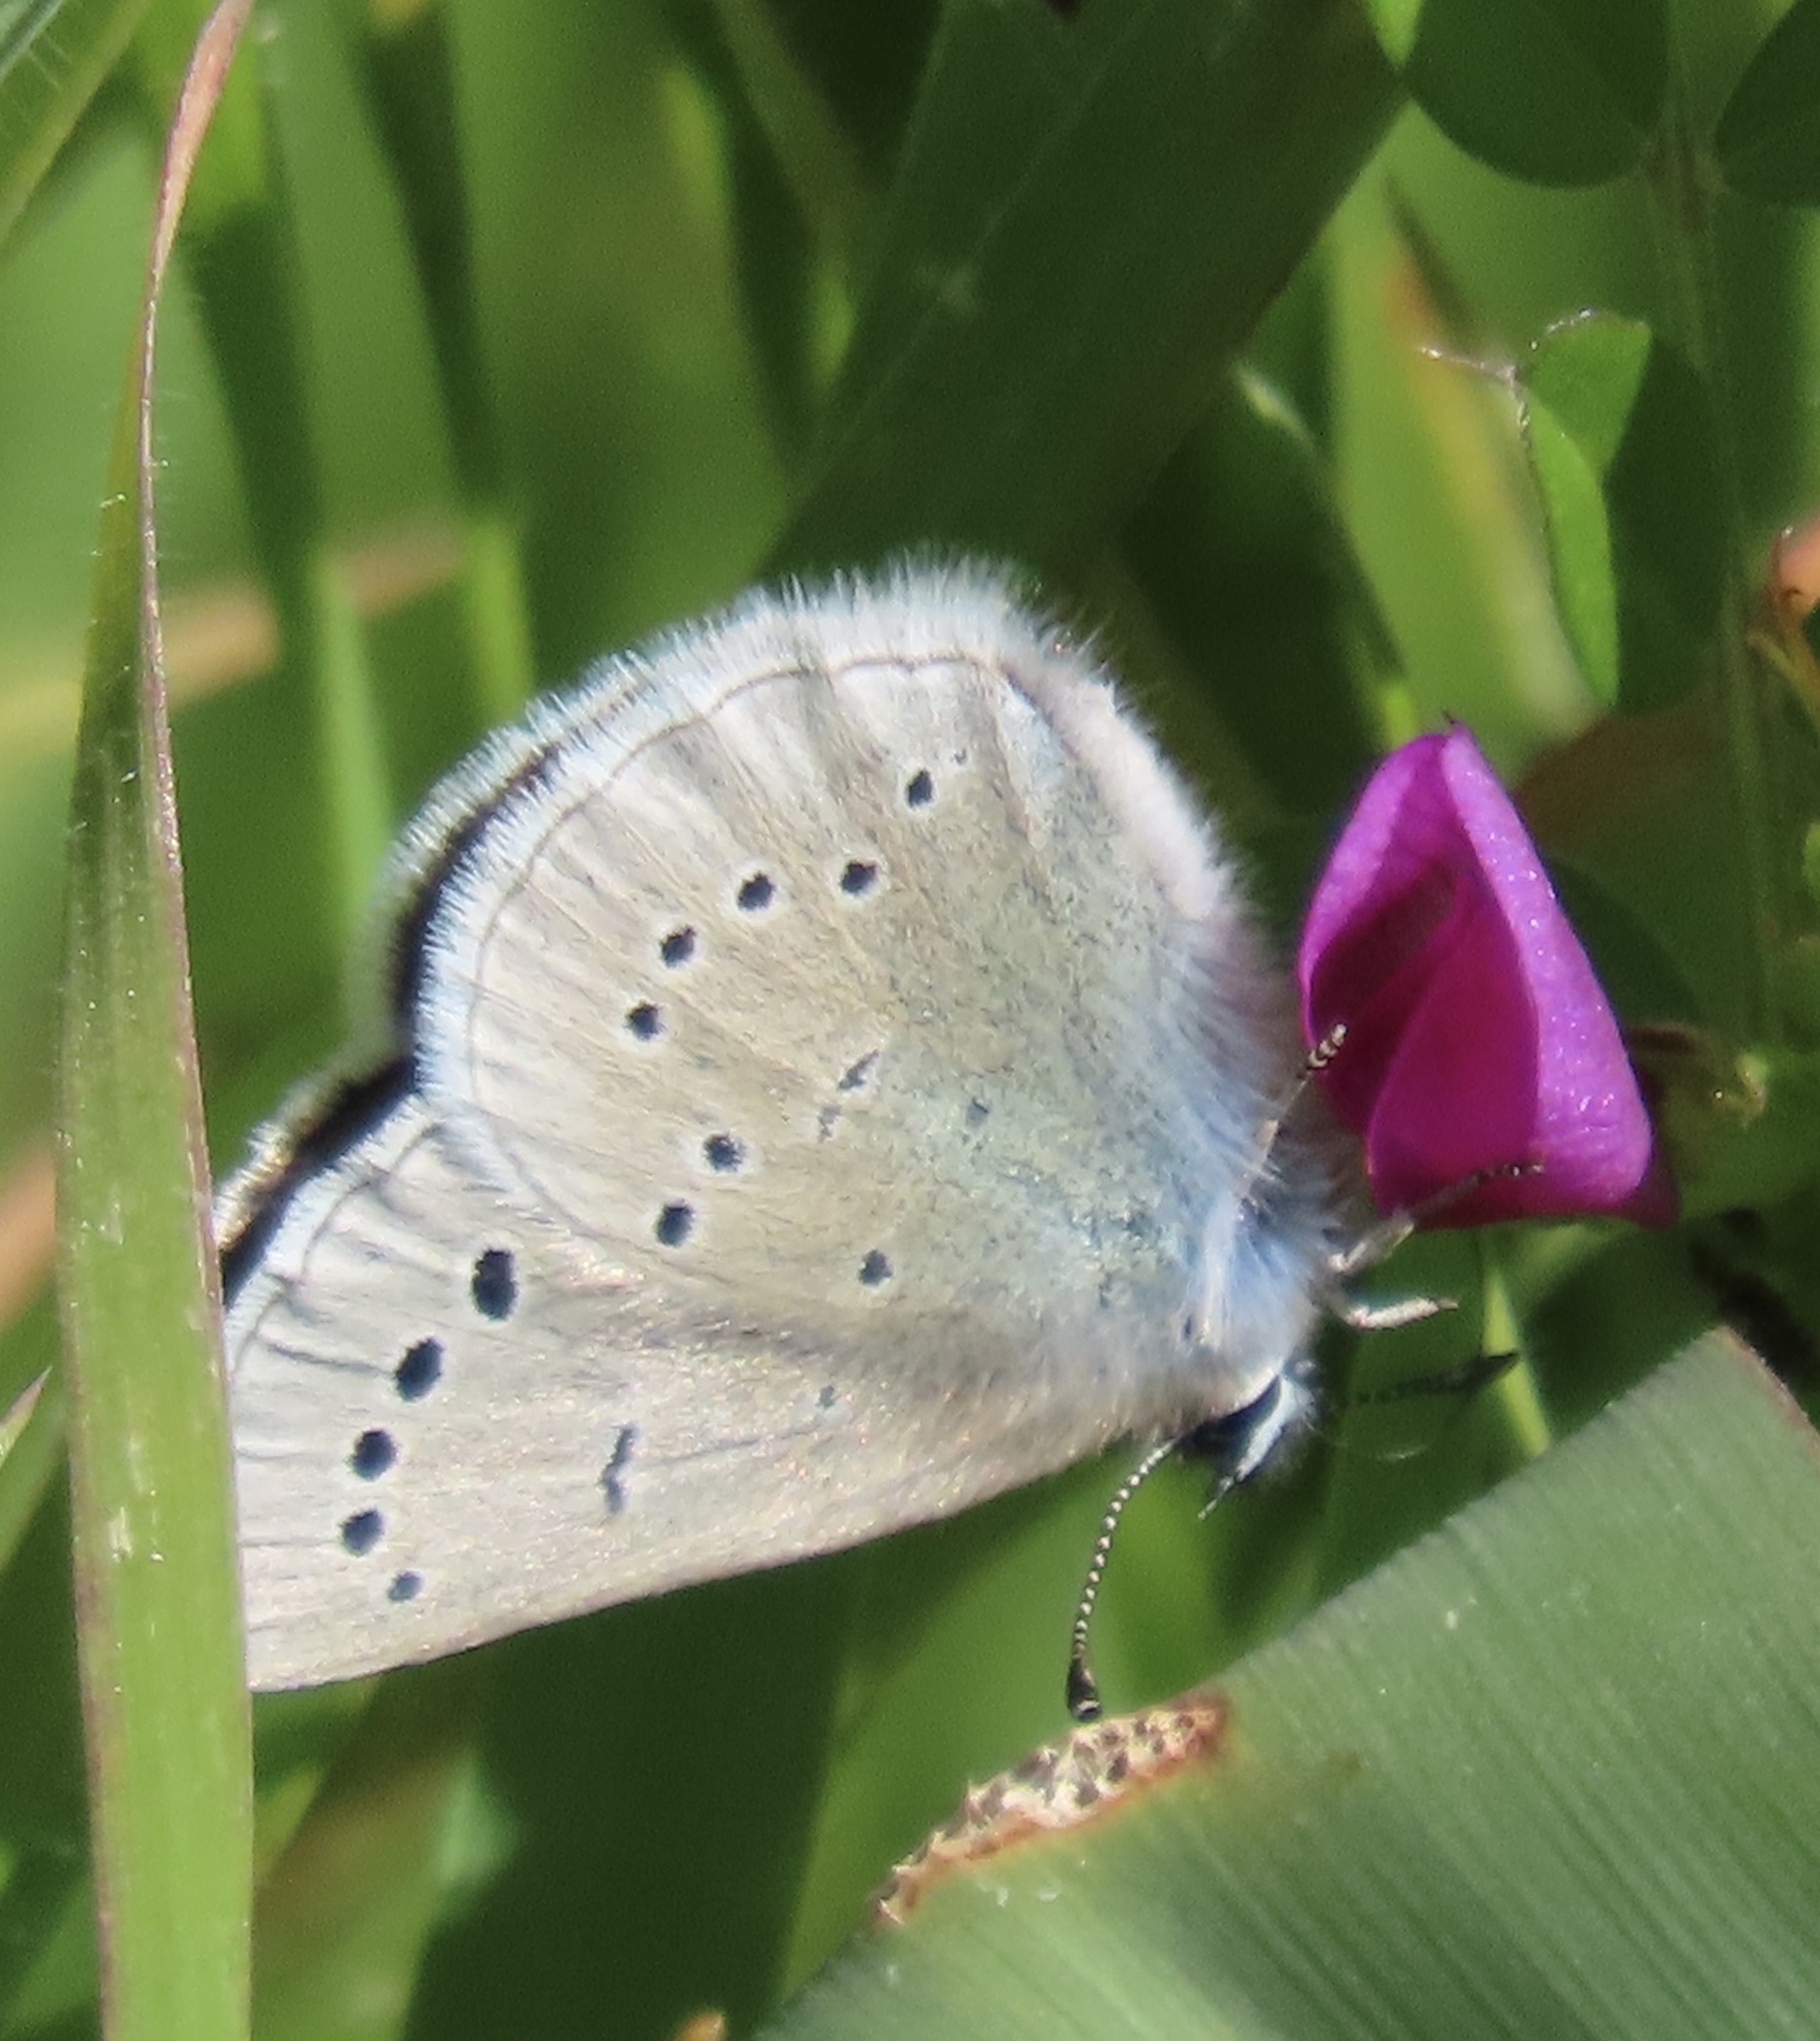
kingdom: Animalia
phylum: Arthropoda
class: Insecta
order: Lepidoptera
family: Lycaenidae
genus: Glaucopsyche
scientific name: Glaucopsyche lygdamus
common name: Silvery blue
